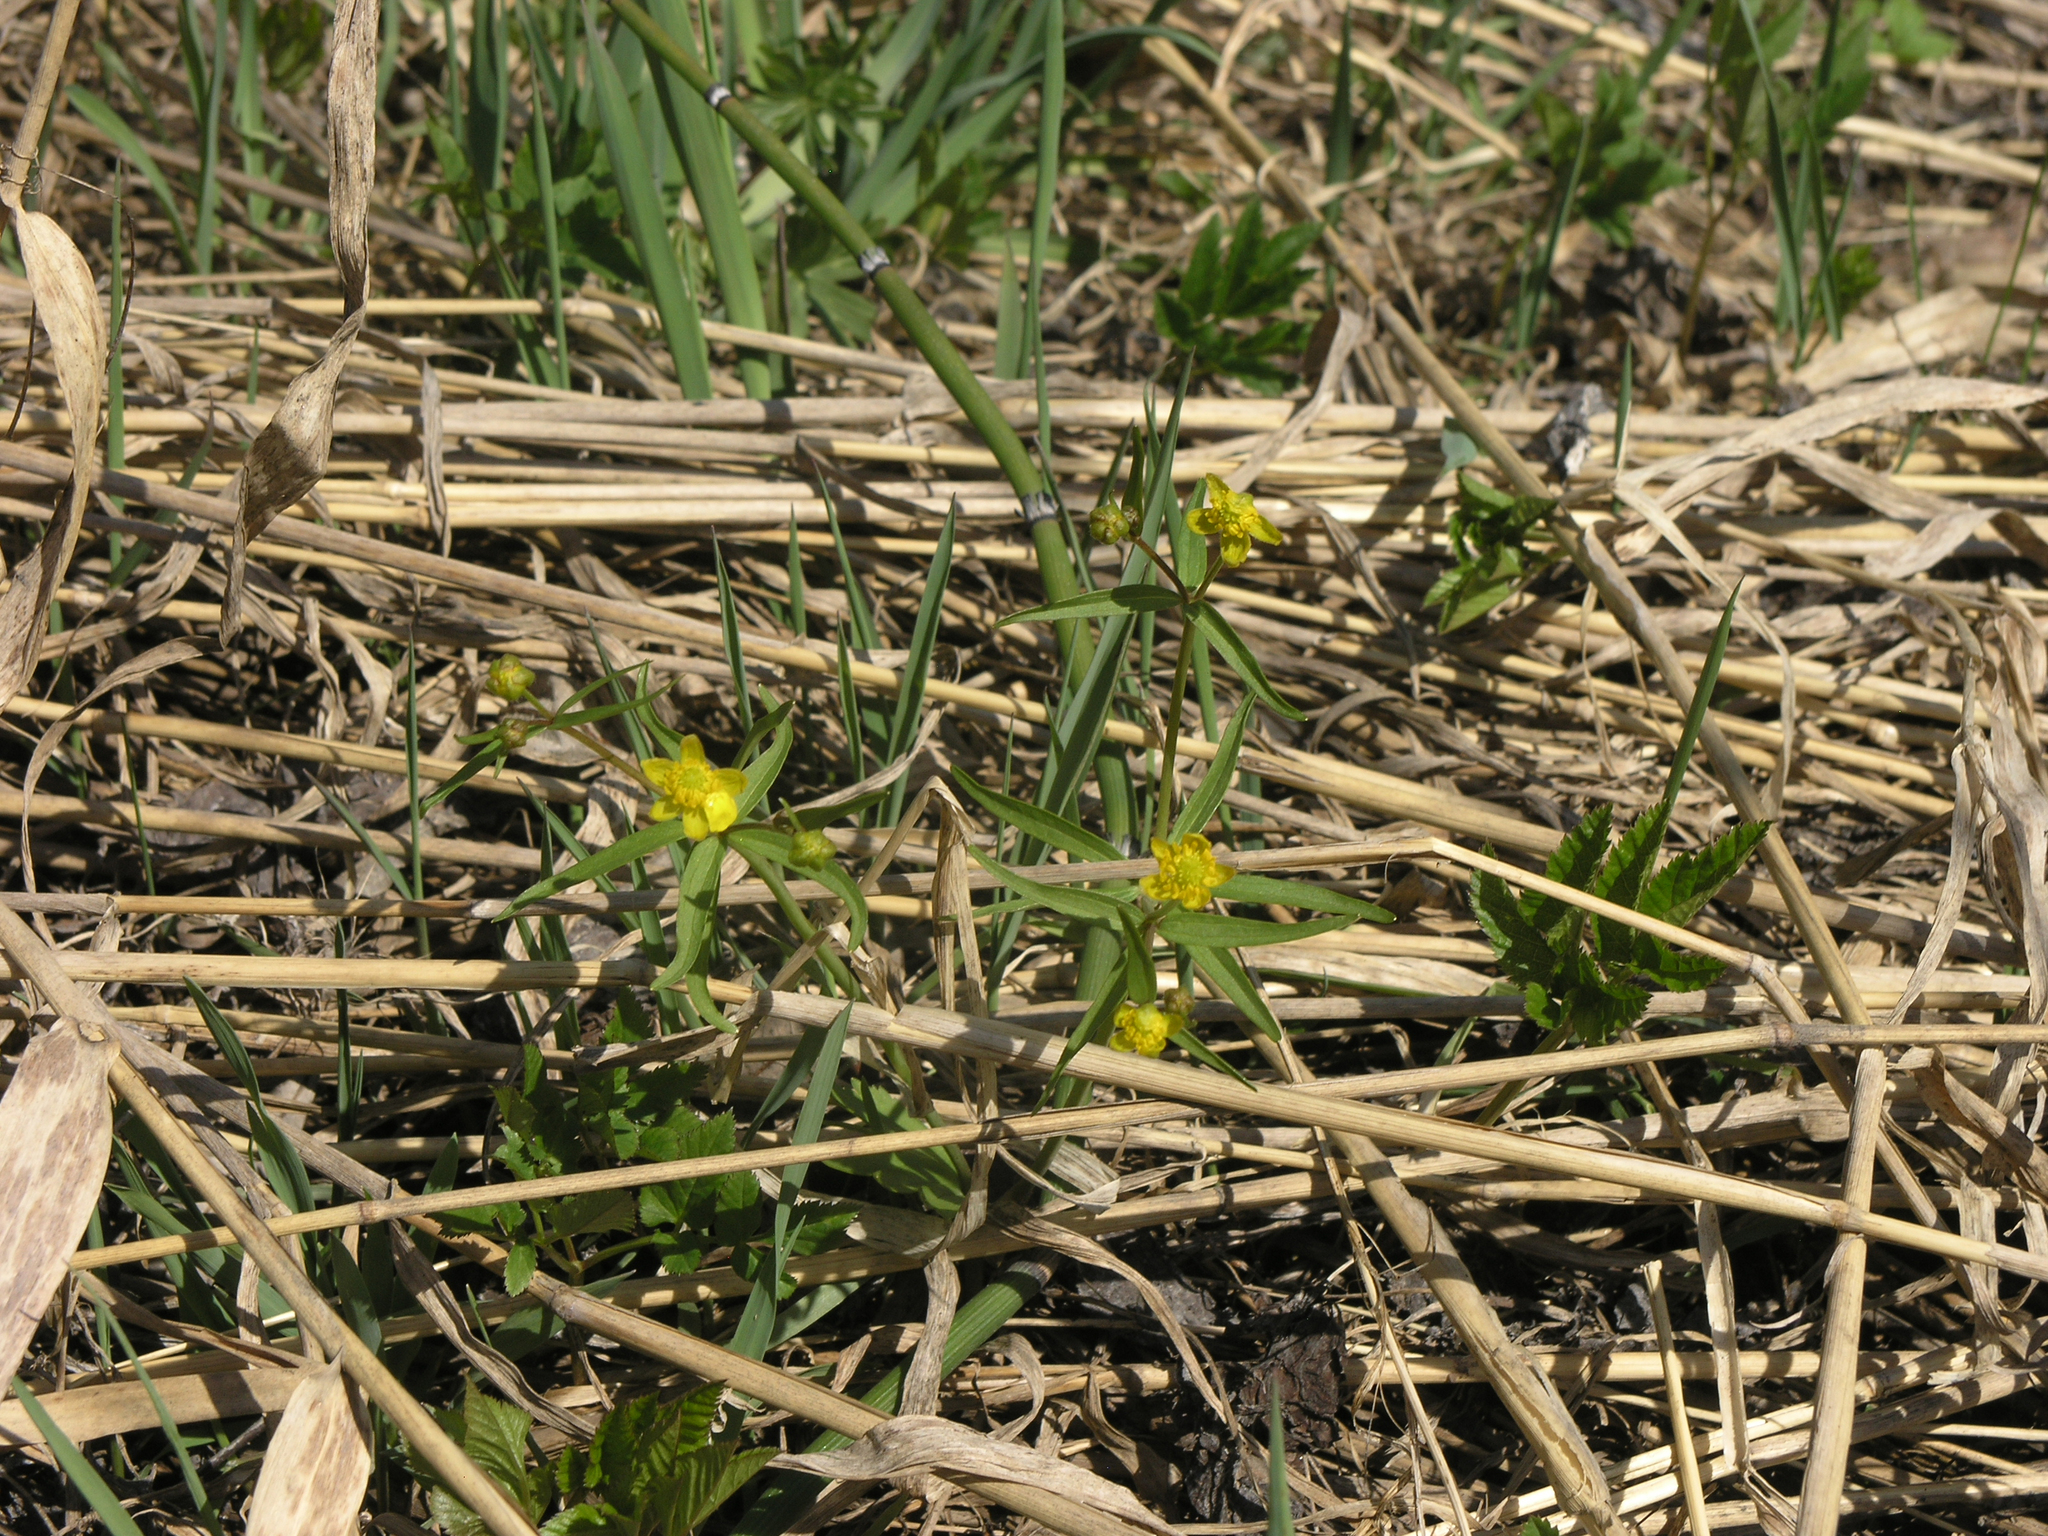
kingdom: Plantae
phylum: Tracheophyta
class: Magnoliopsida
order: Ranunculales
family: Ranunculaceae
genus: Ranunculus
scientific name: Ranunculus monophyllus
